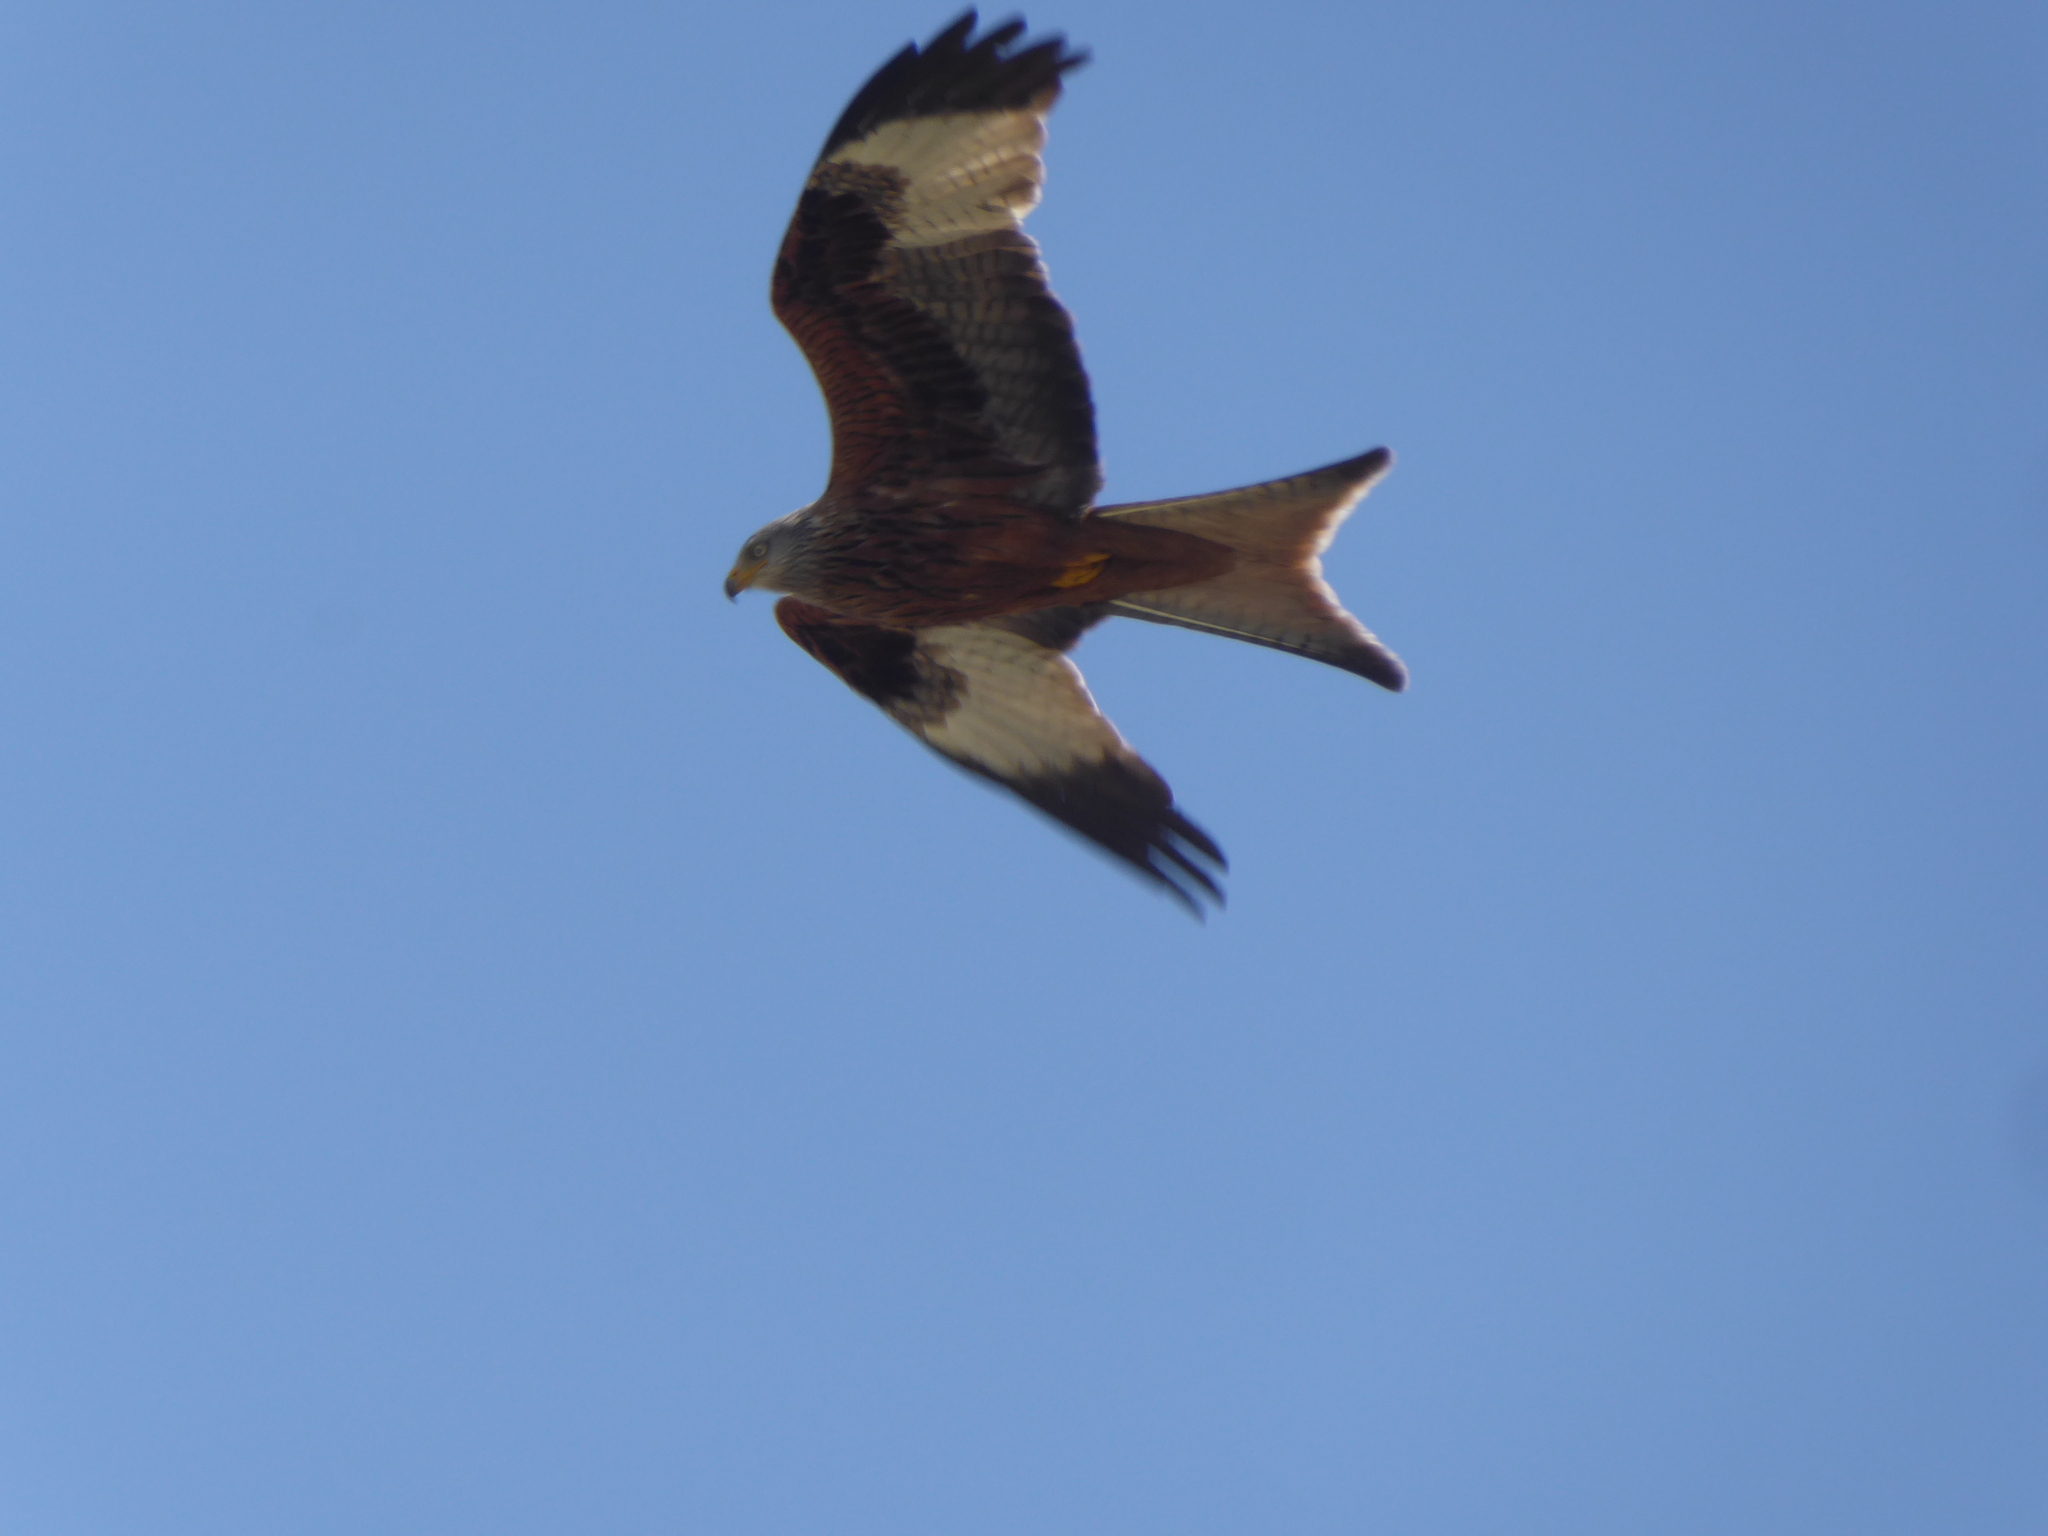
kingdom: Animalia
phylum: Chordata
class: Aves
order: Accipitriformes
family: Accipitridae
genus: Milvus
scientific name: Milvus milvus
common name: Red kite
